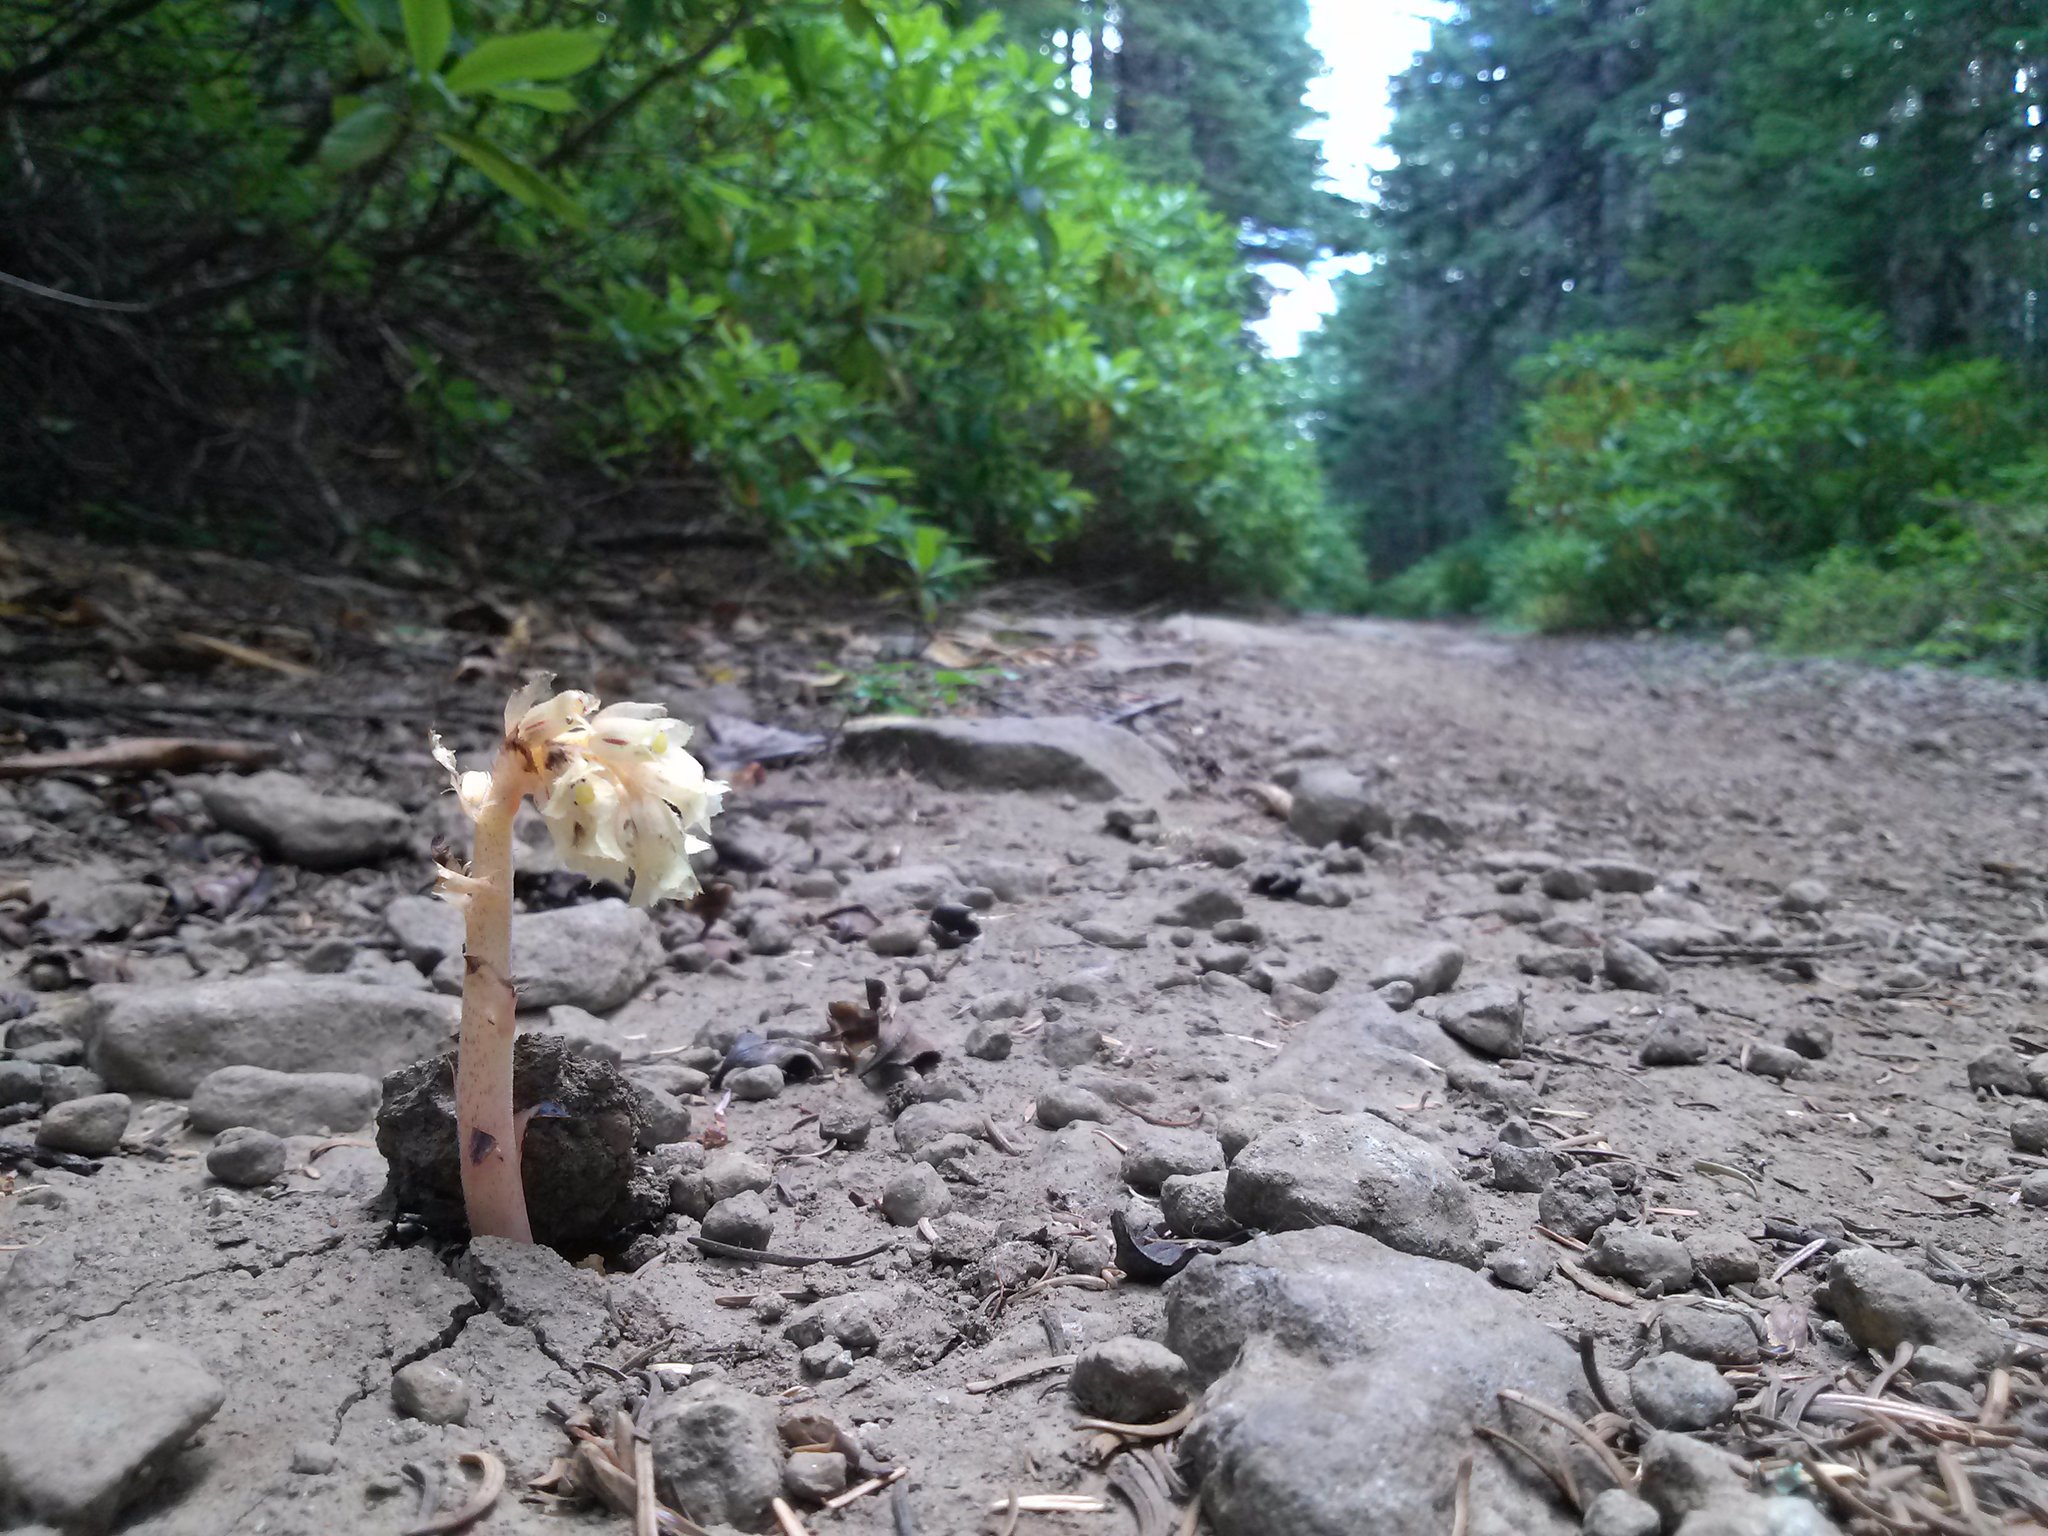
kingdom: Plantae
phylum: Tracheophyta
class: Magnoliopsida
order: Ericales
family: Ericaceae
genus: Hypopitys
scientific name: Hypopitys monotropa
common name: Yellow bird's-nest
